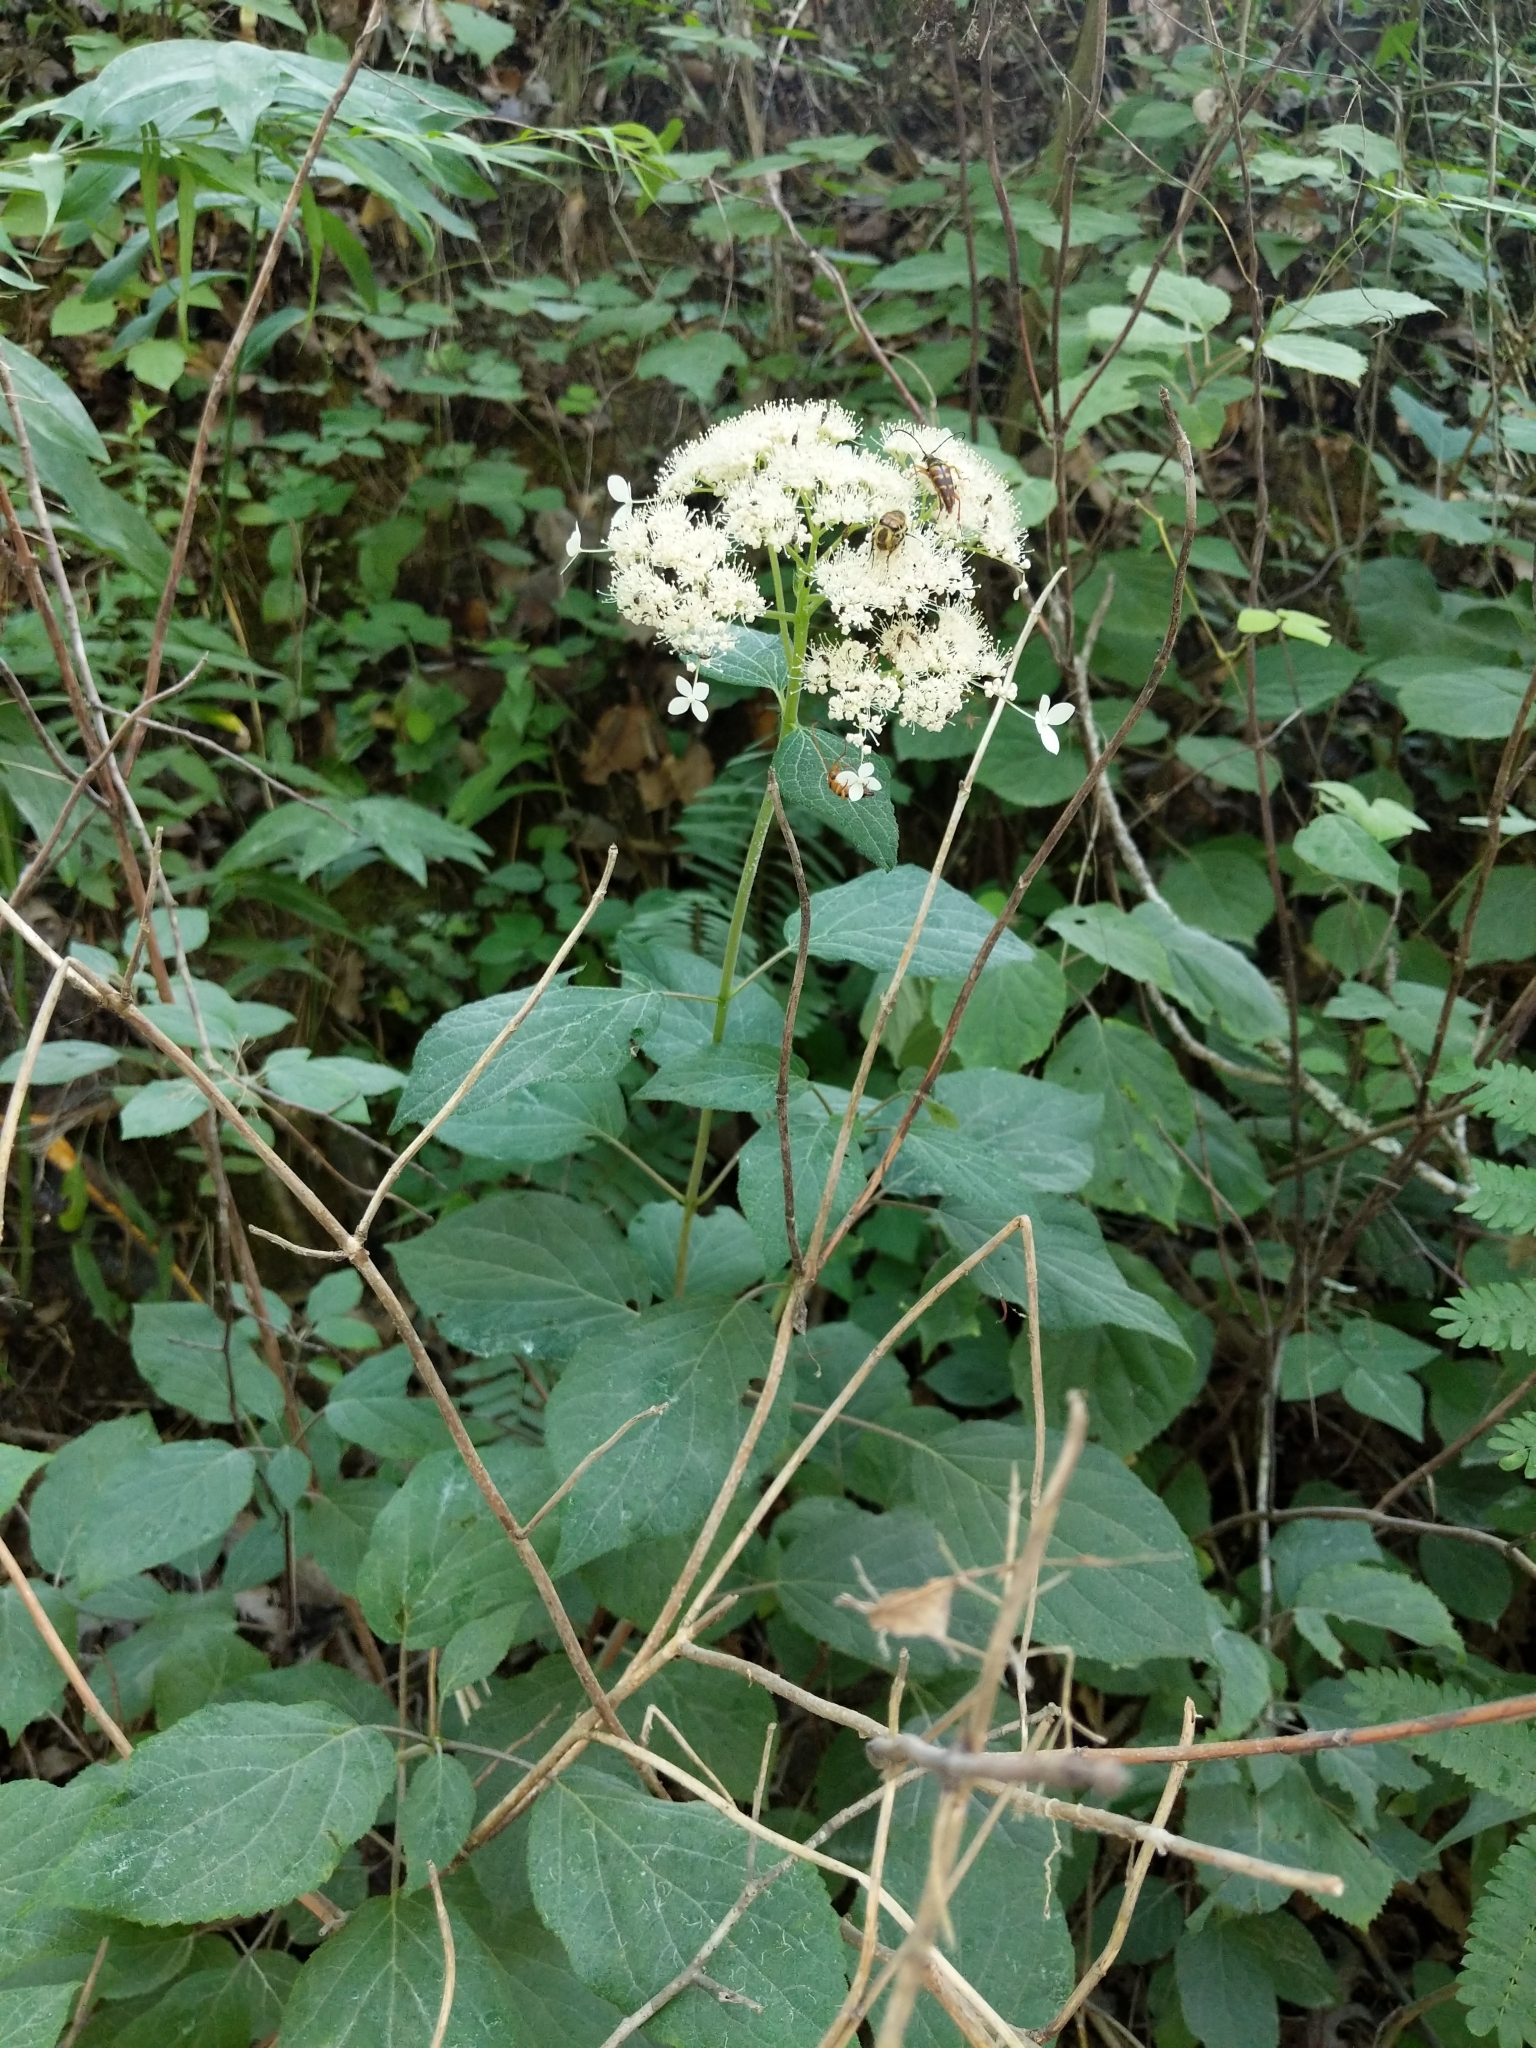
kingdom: Plantae
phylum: Tracheophyta
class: Magnoliopsida
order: Cornales
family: Hydrangeaceae
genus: Hydrangea
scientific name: Hydrangea arborescens
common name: Sevenbark
